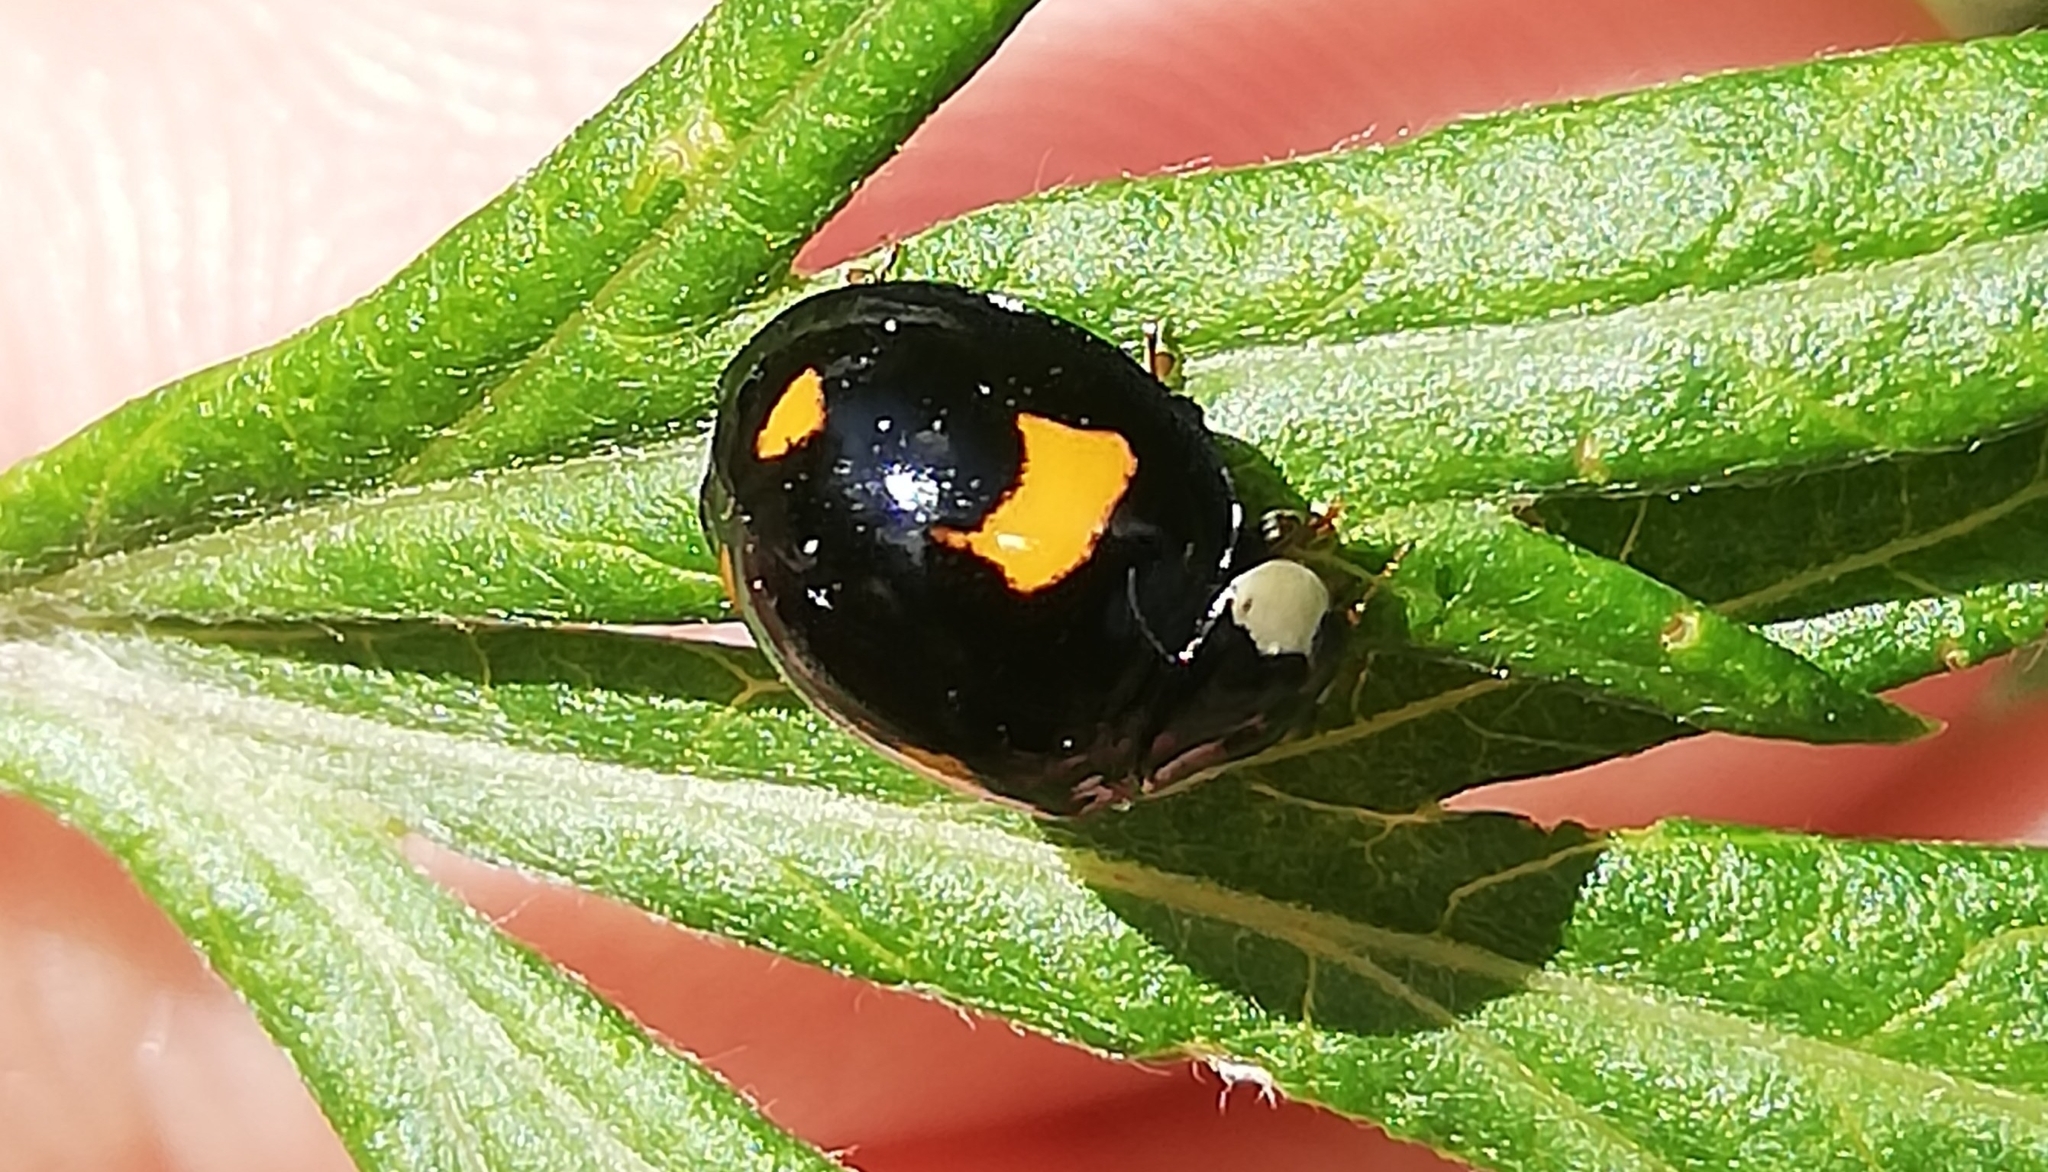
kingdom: Animalia
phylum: Arthropoda
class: Insecta
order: Coleoptera
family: Coccinellidae
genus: Harmonia
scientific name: Harmonia axyridis
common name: Harlequin ladybird
